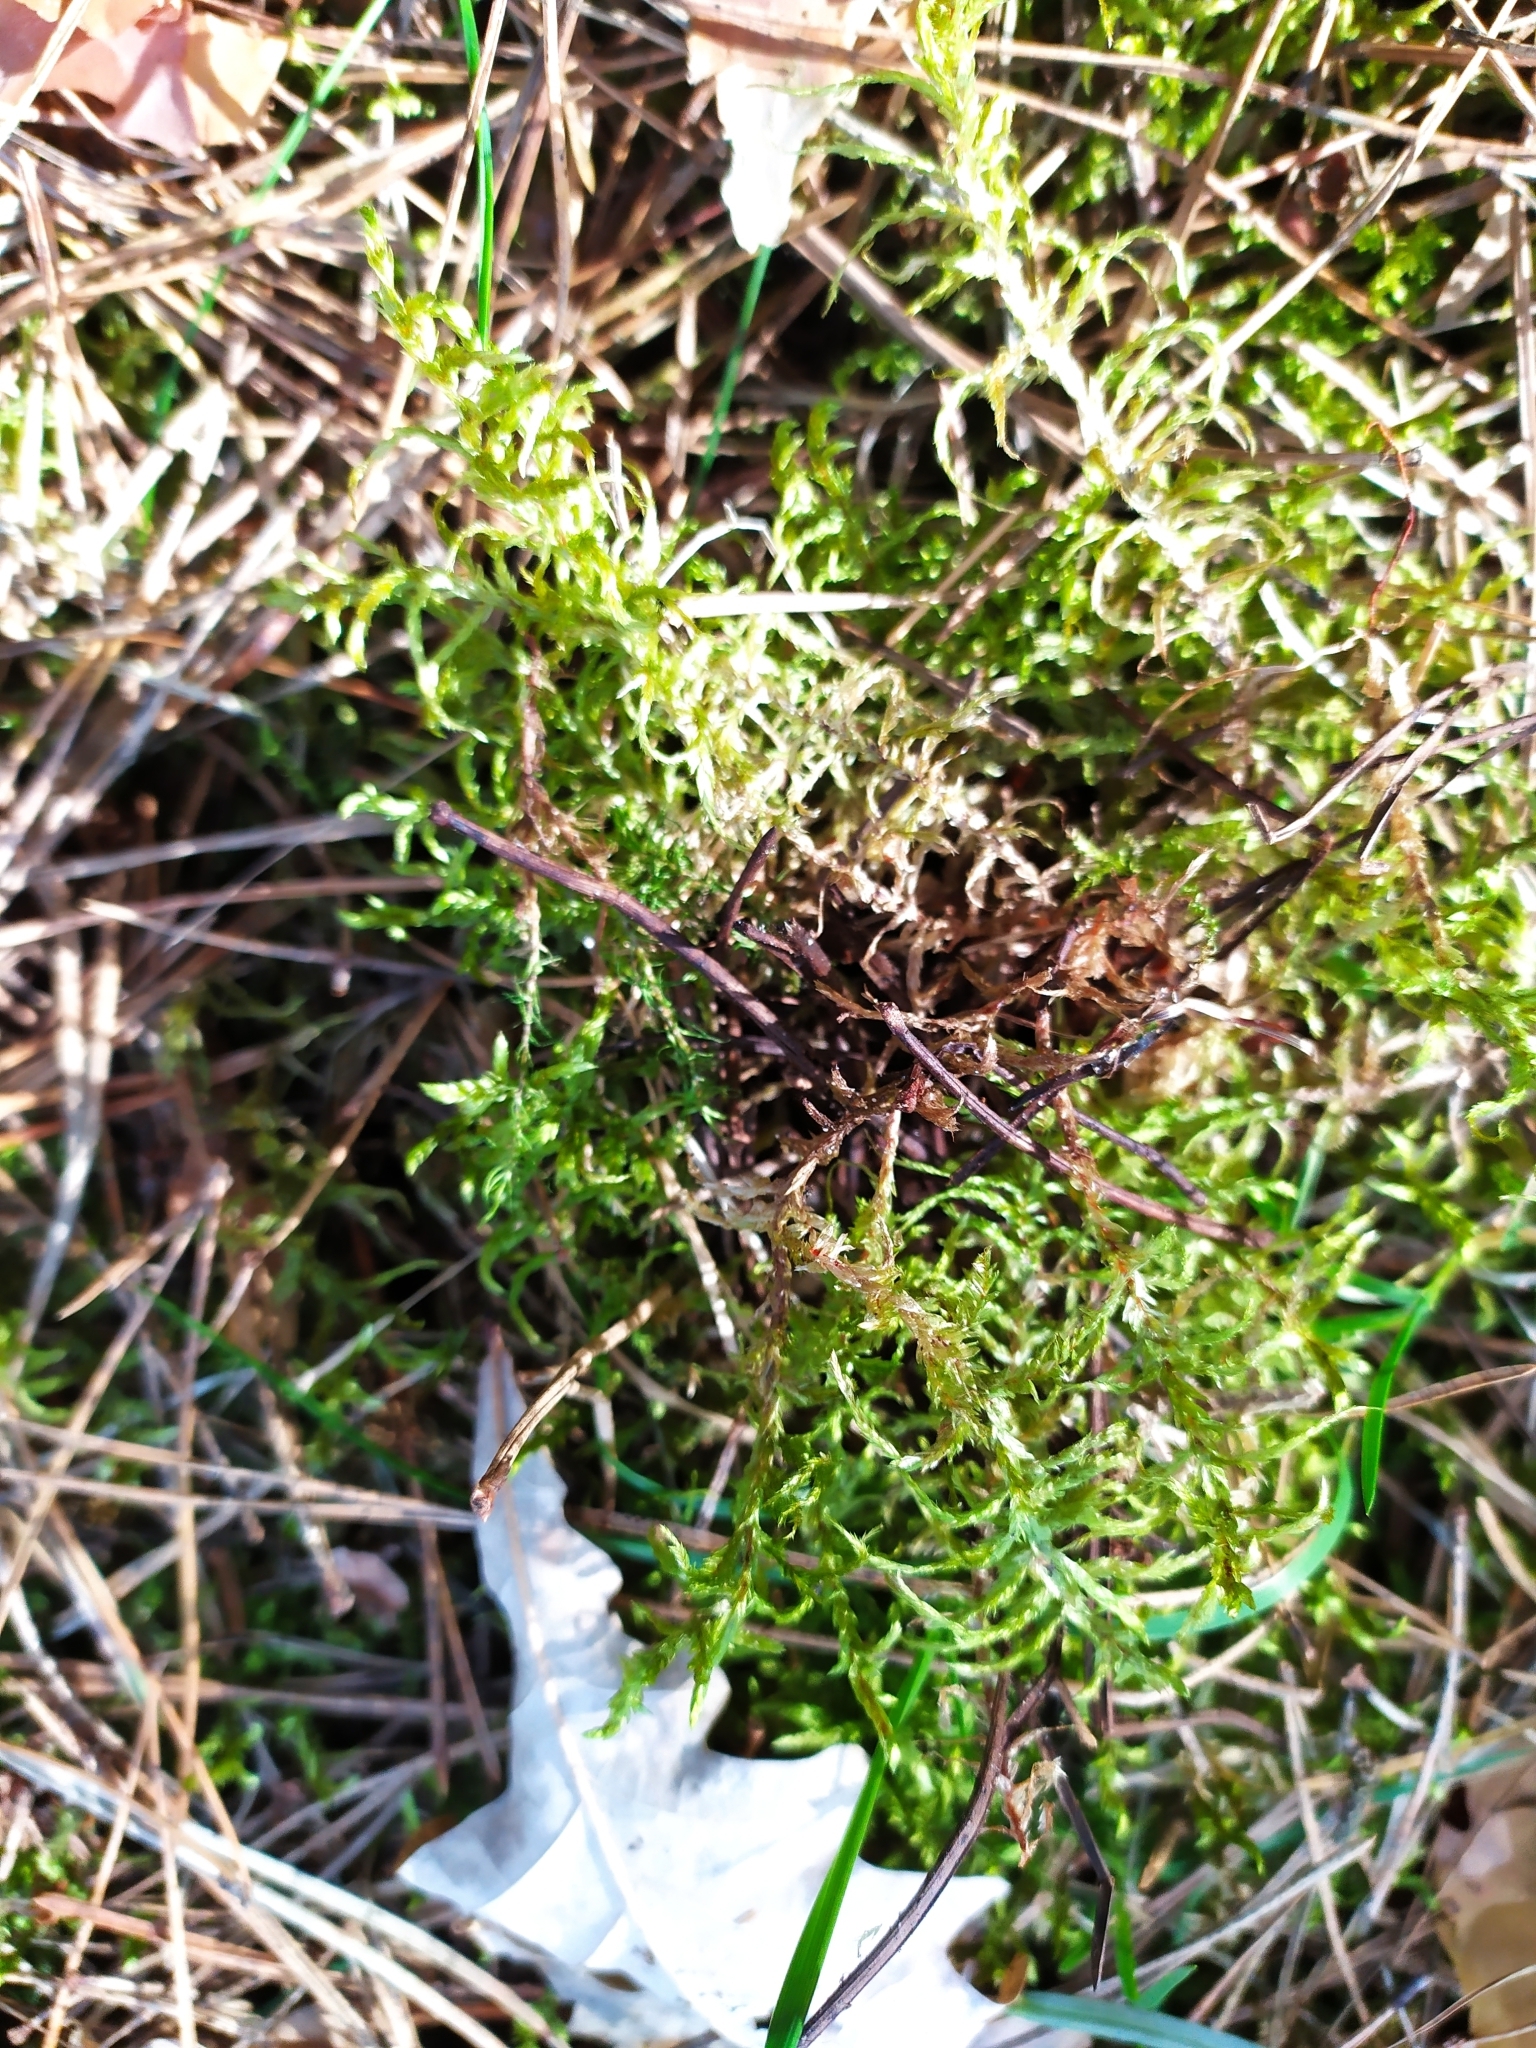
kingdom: Plantae
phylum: Bryophyta
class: Bryopsida
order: Hypnales
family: Hylocomiaceae
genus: Pleurozium
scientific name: Pleurozium schreberi
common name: Red-stemmed feather moss
